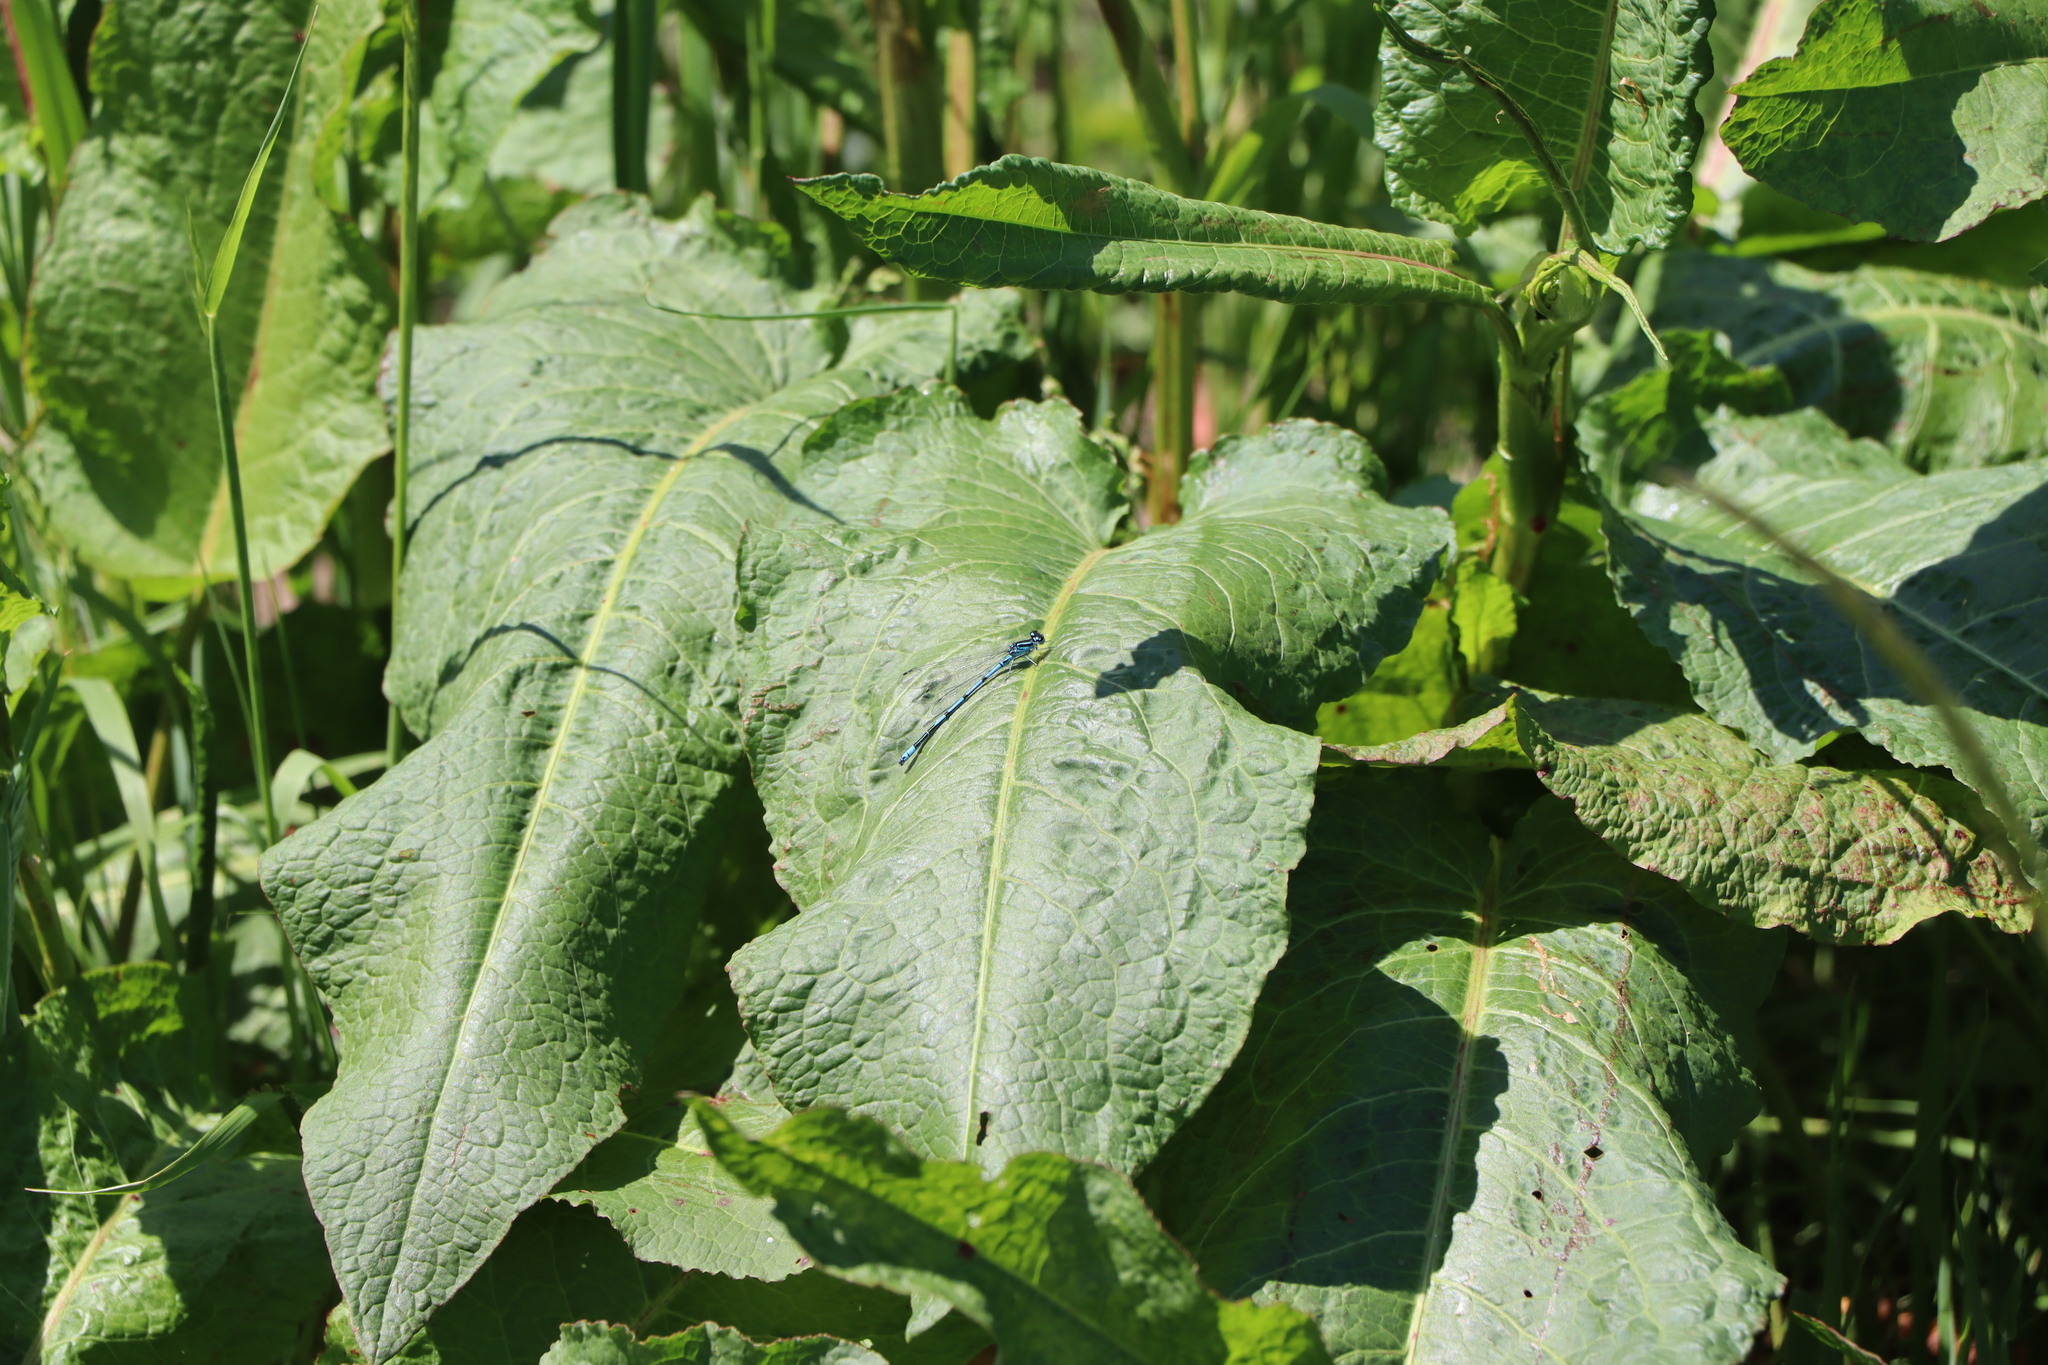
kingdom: Animalia
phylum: Arthropoda
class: Insecta
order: Odonata
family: Coenagrionidae
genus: Coenagrion
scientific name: Coenagrion puella
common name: Azure damselfly
